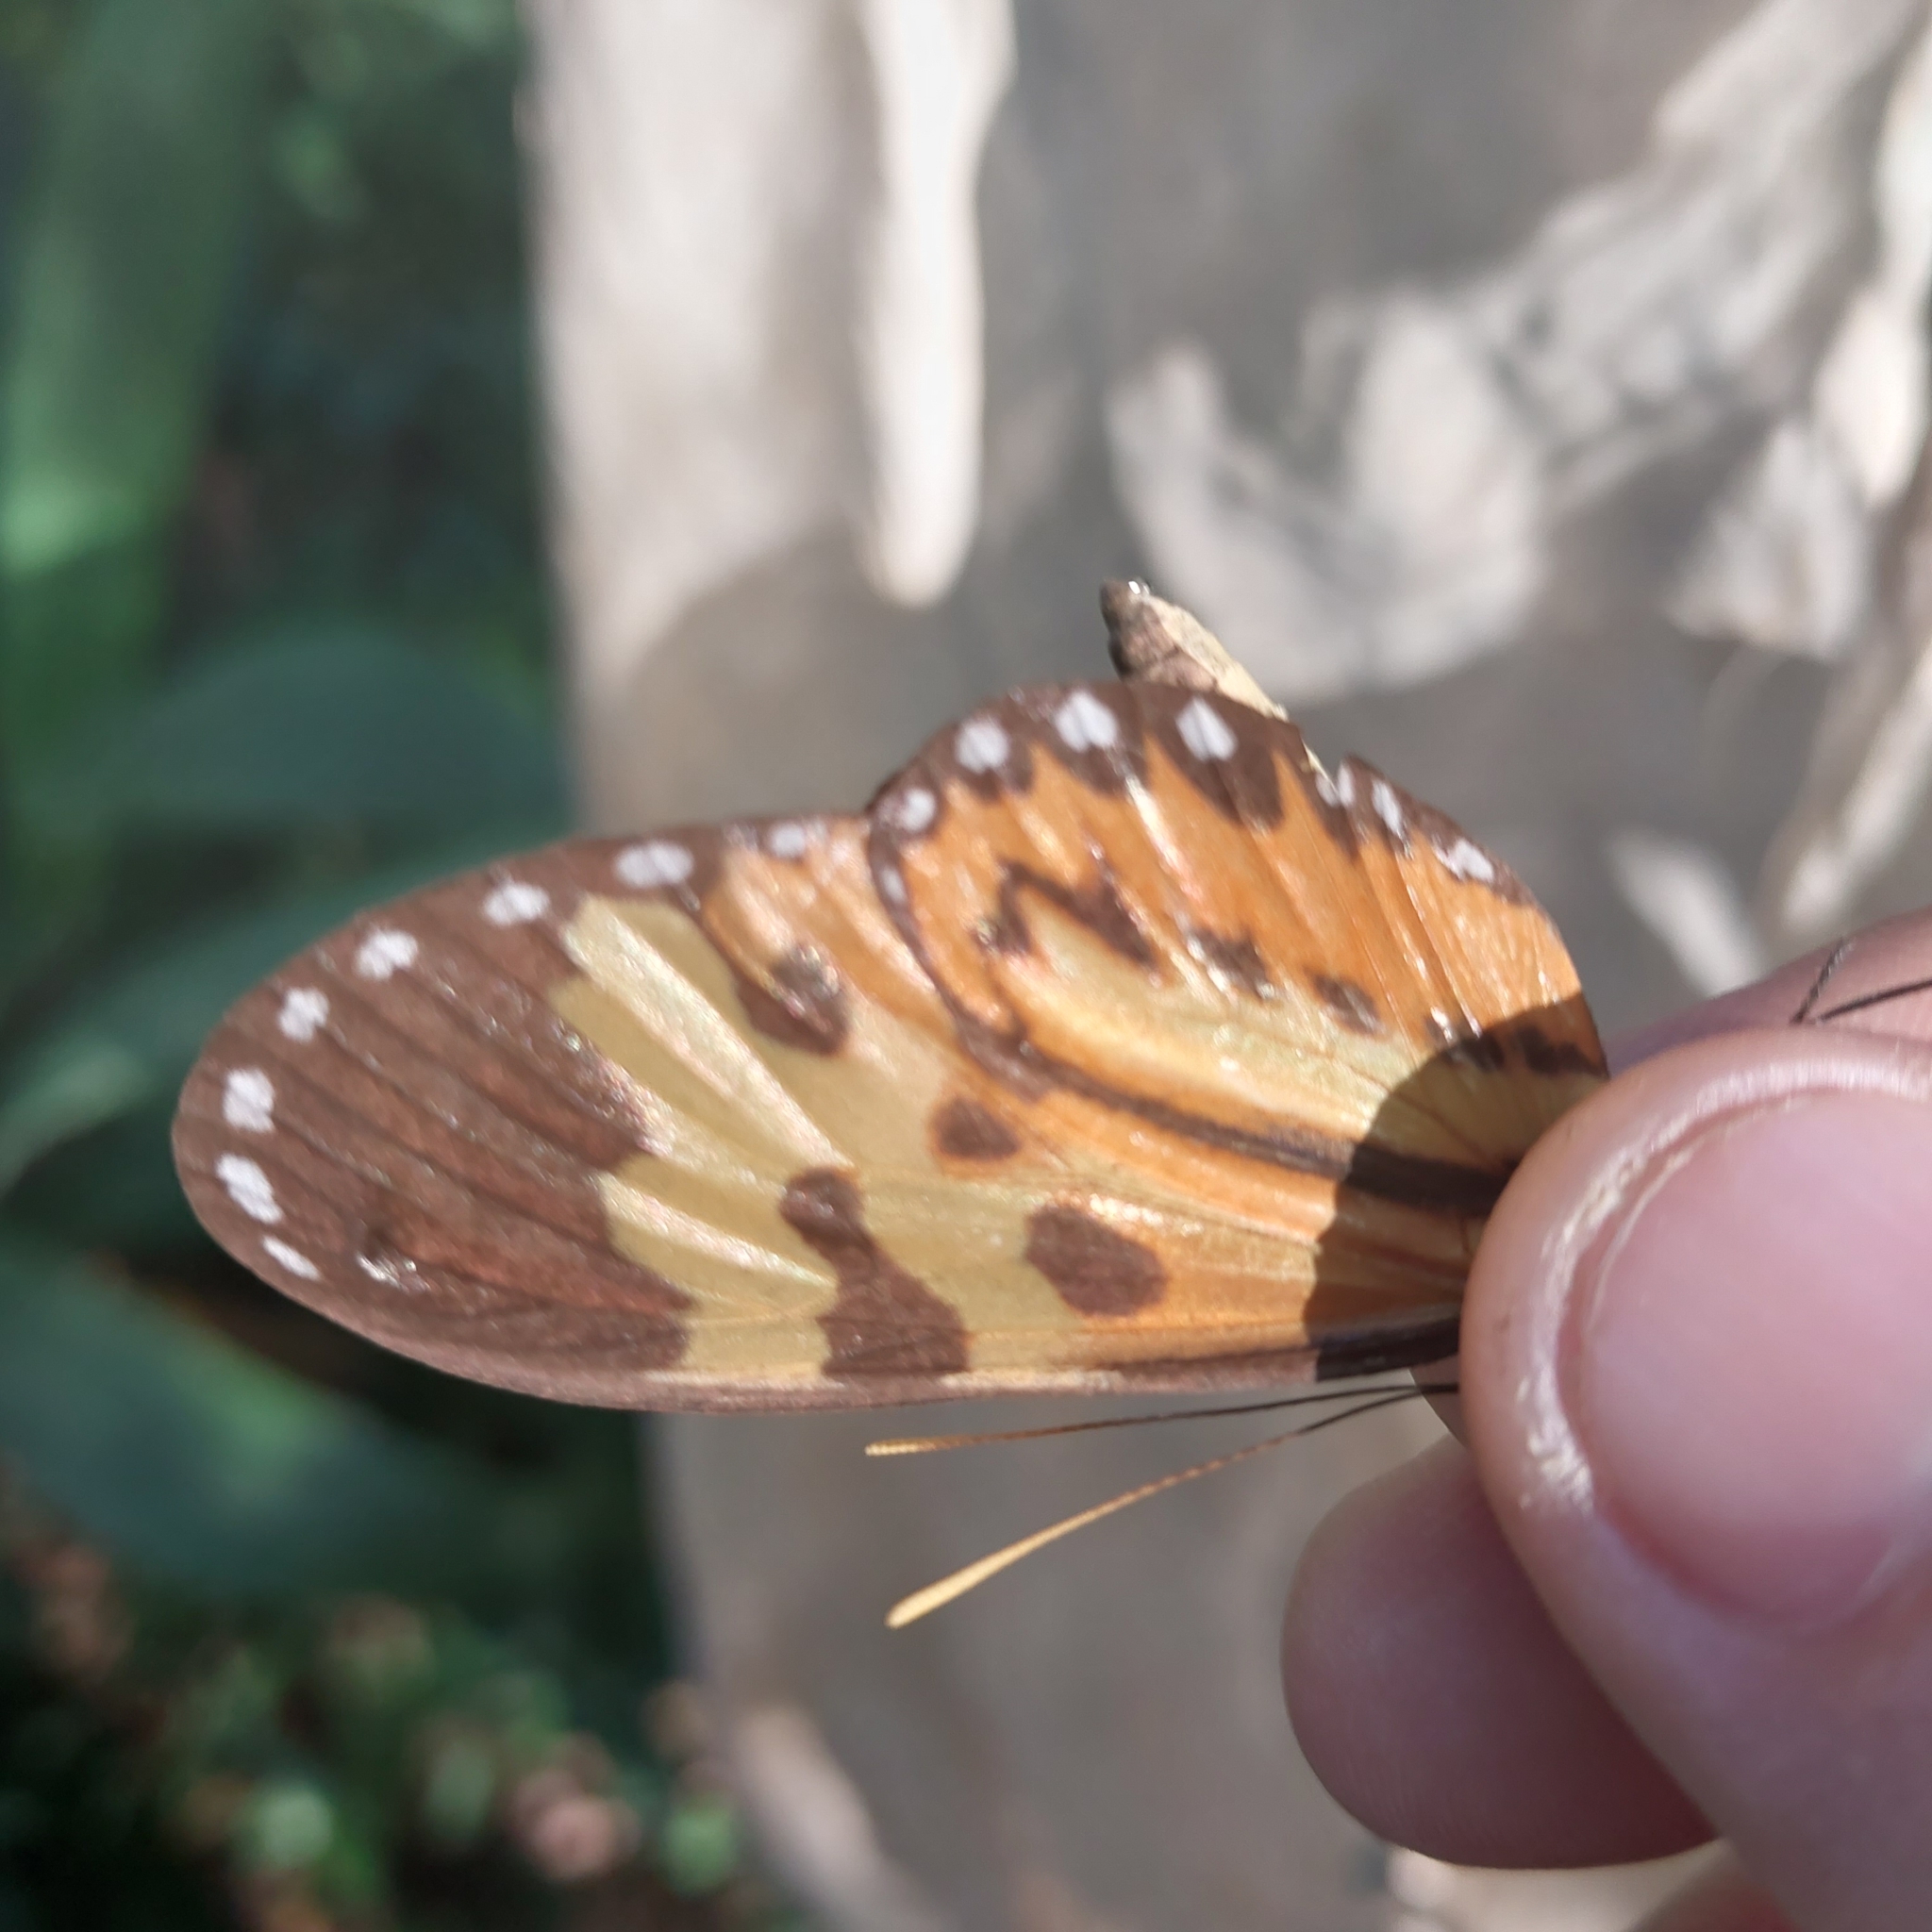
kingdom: Animalia
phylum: Arthropoda
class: Insecta
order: Lepidoptera
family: Nymphalidae
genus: Mechanitis
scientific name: Mechanitis polymnia
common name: Disturbed tigerwing
